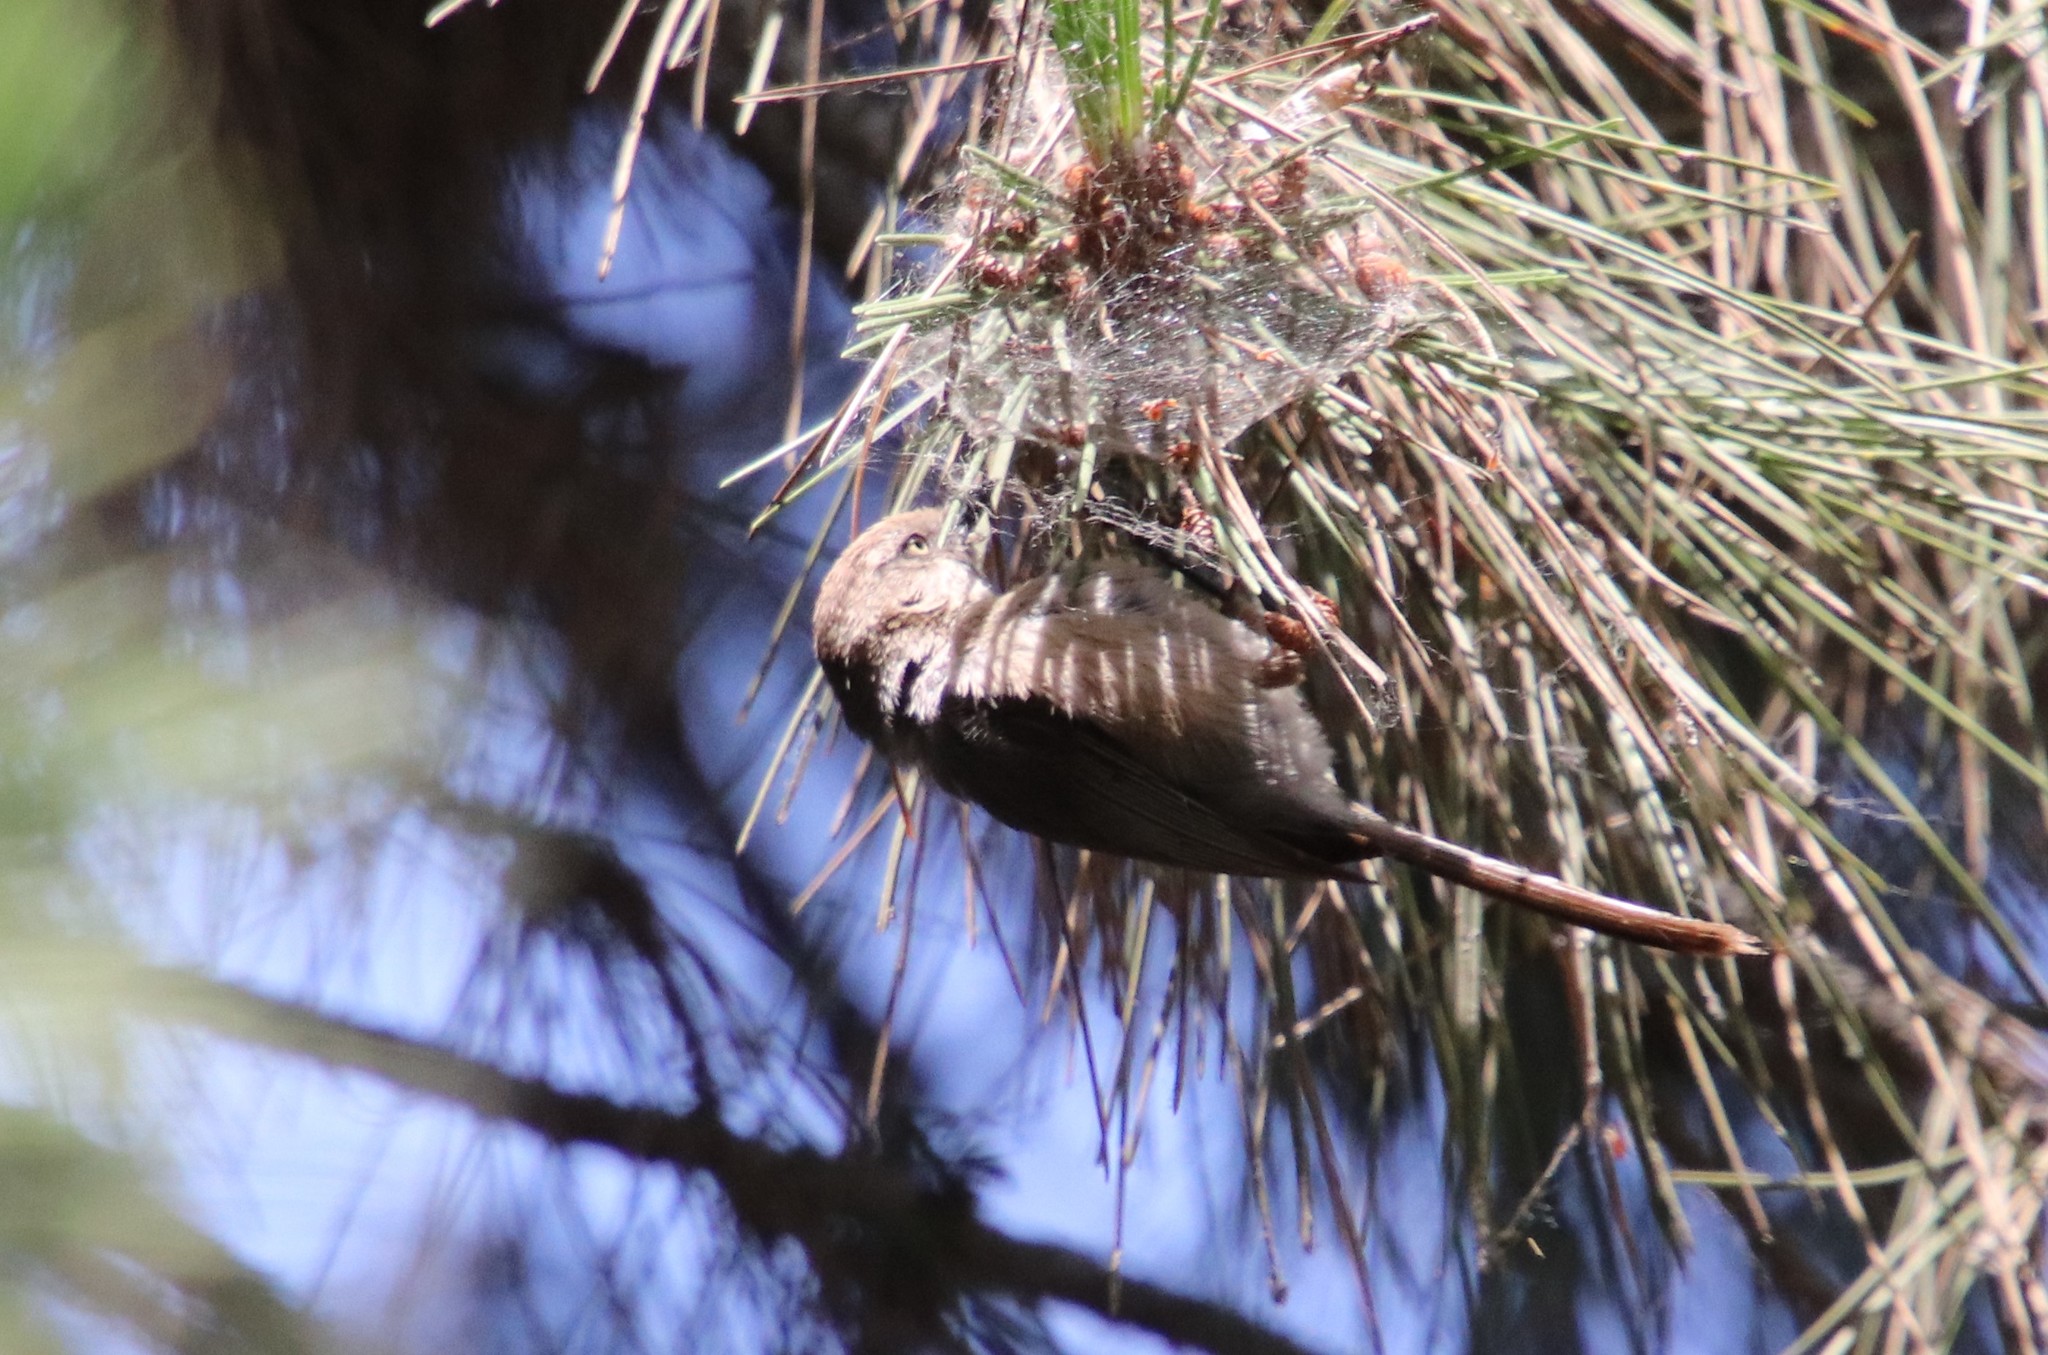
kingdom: Animalia
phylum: Chordata
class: Aves
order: Passeriformes
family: Aegithalidae
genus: Psaltriparus
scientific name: Psaltriparus minimus
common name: American bushtit
